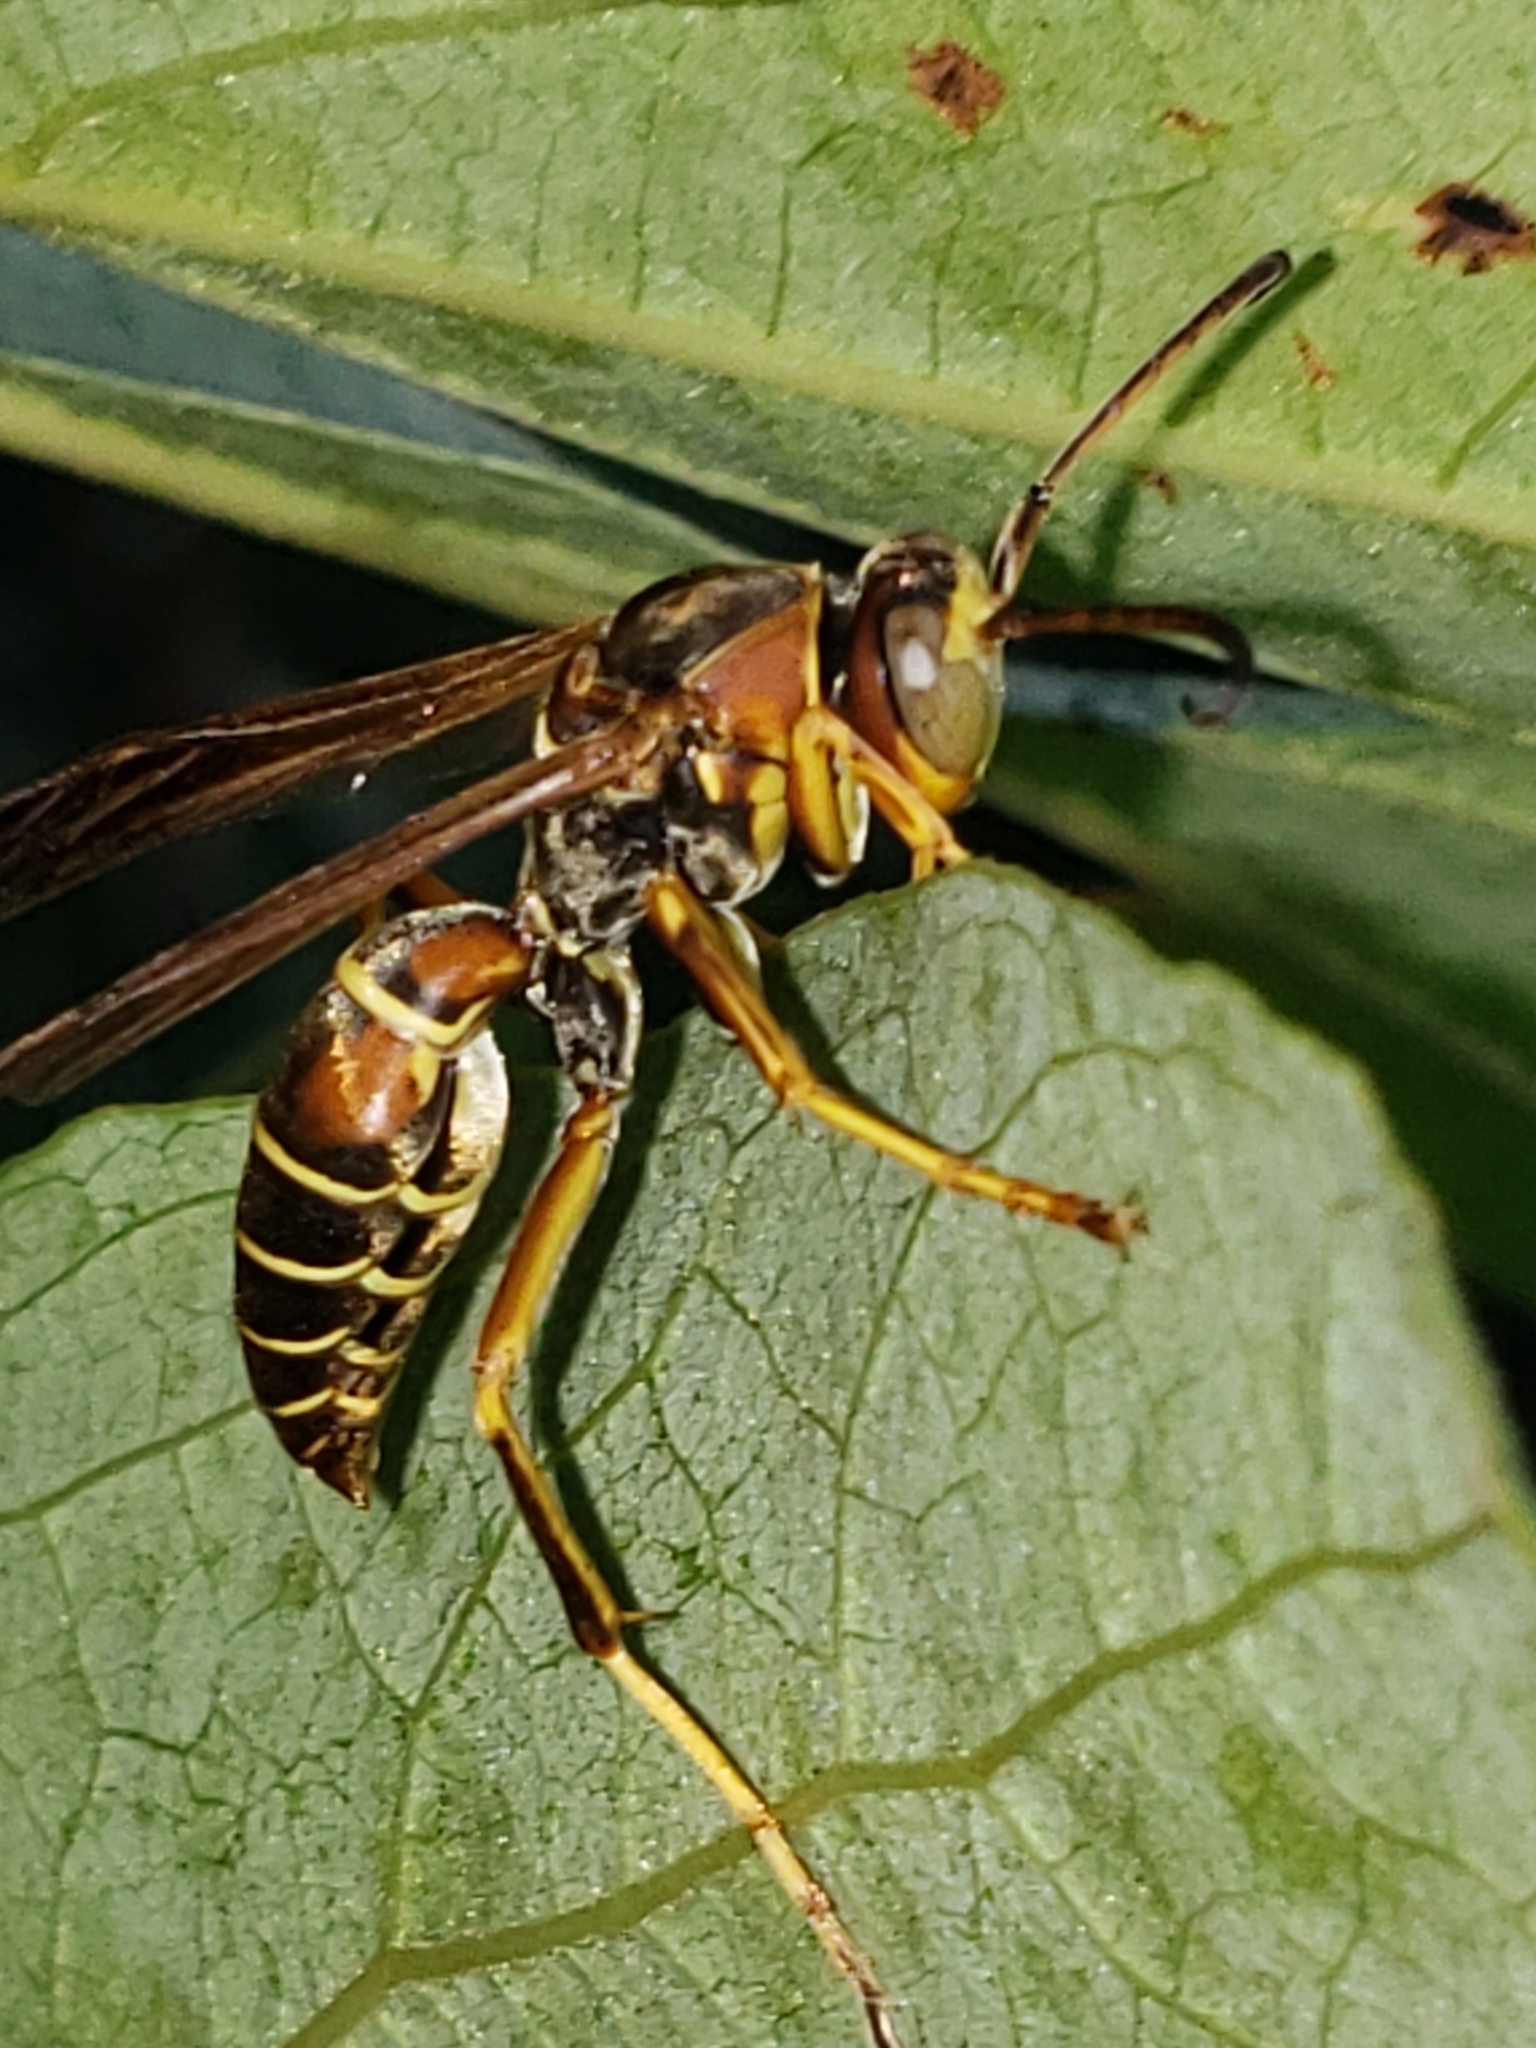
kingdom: Animalia
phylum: Arthropoda
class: Insecta
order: Hymenoptera
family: Eumenidae
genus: Polistes
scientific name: Polistes fuscatus
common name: Dark paper wasp
